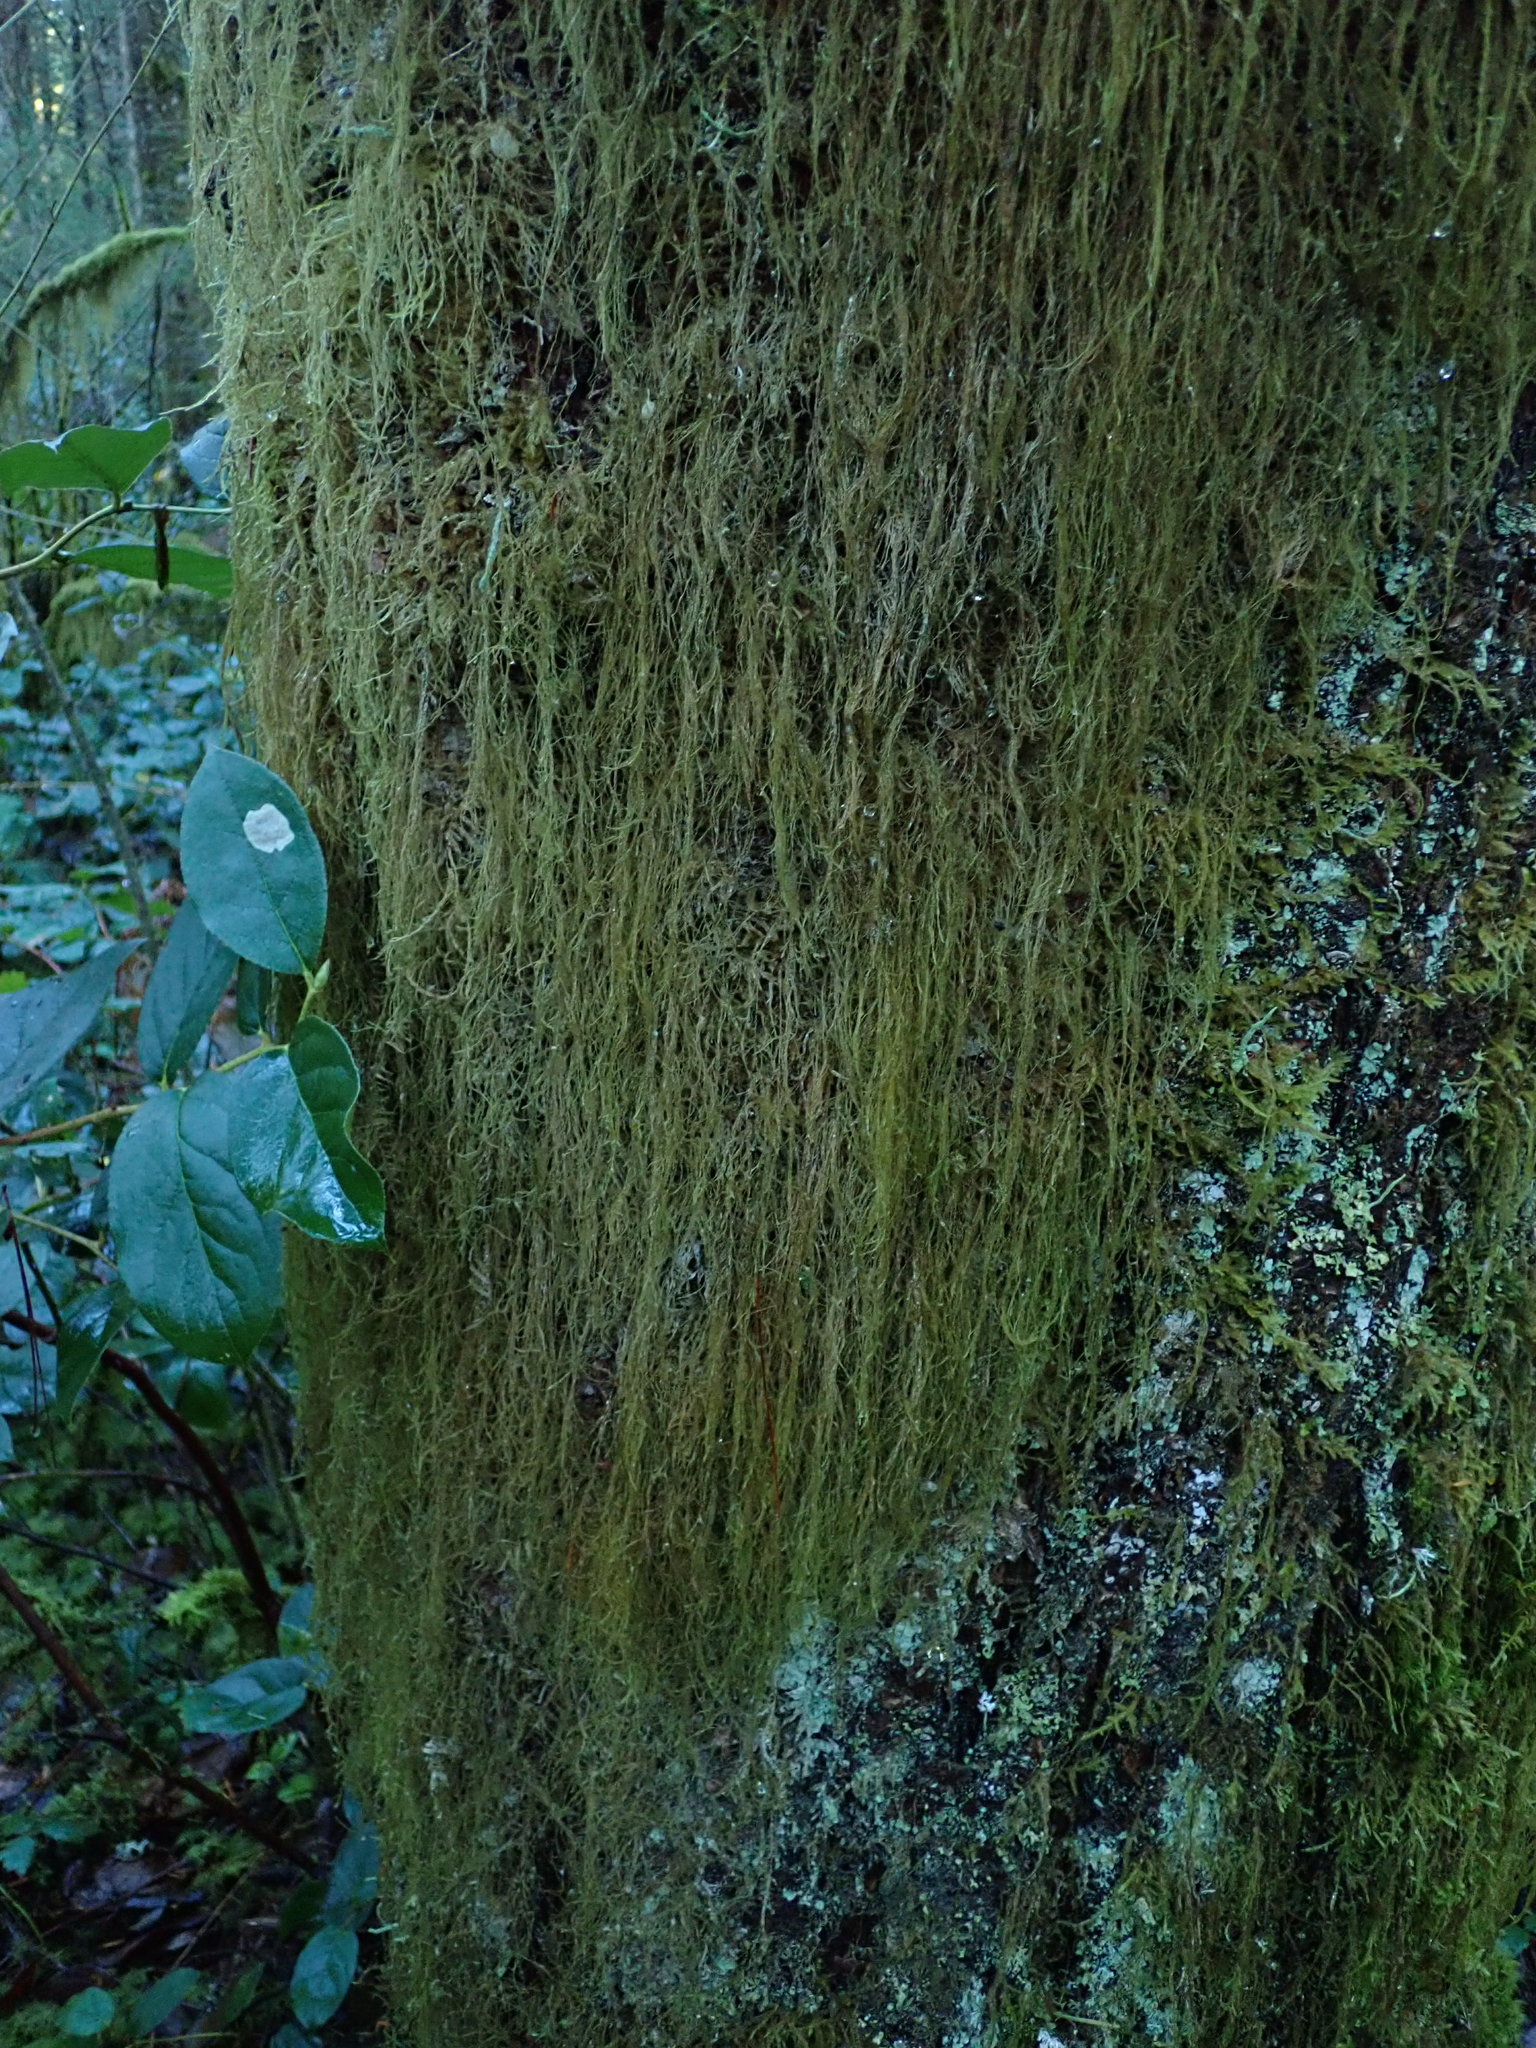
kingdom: Plantae
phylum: Bryophyta
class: Bryopsida
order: Hypnales
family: Lembophyllaceae
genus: Pseudisothecium
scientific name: Pseudisothecium stoloniferum
